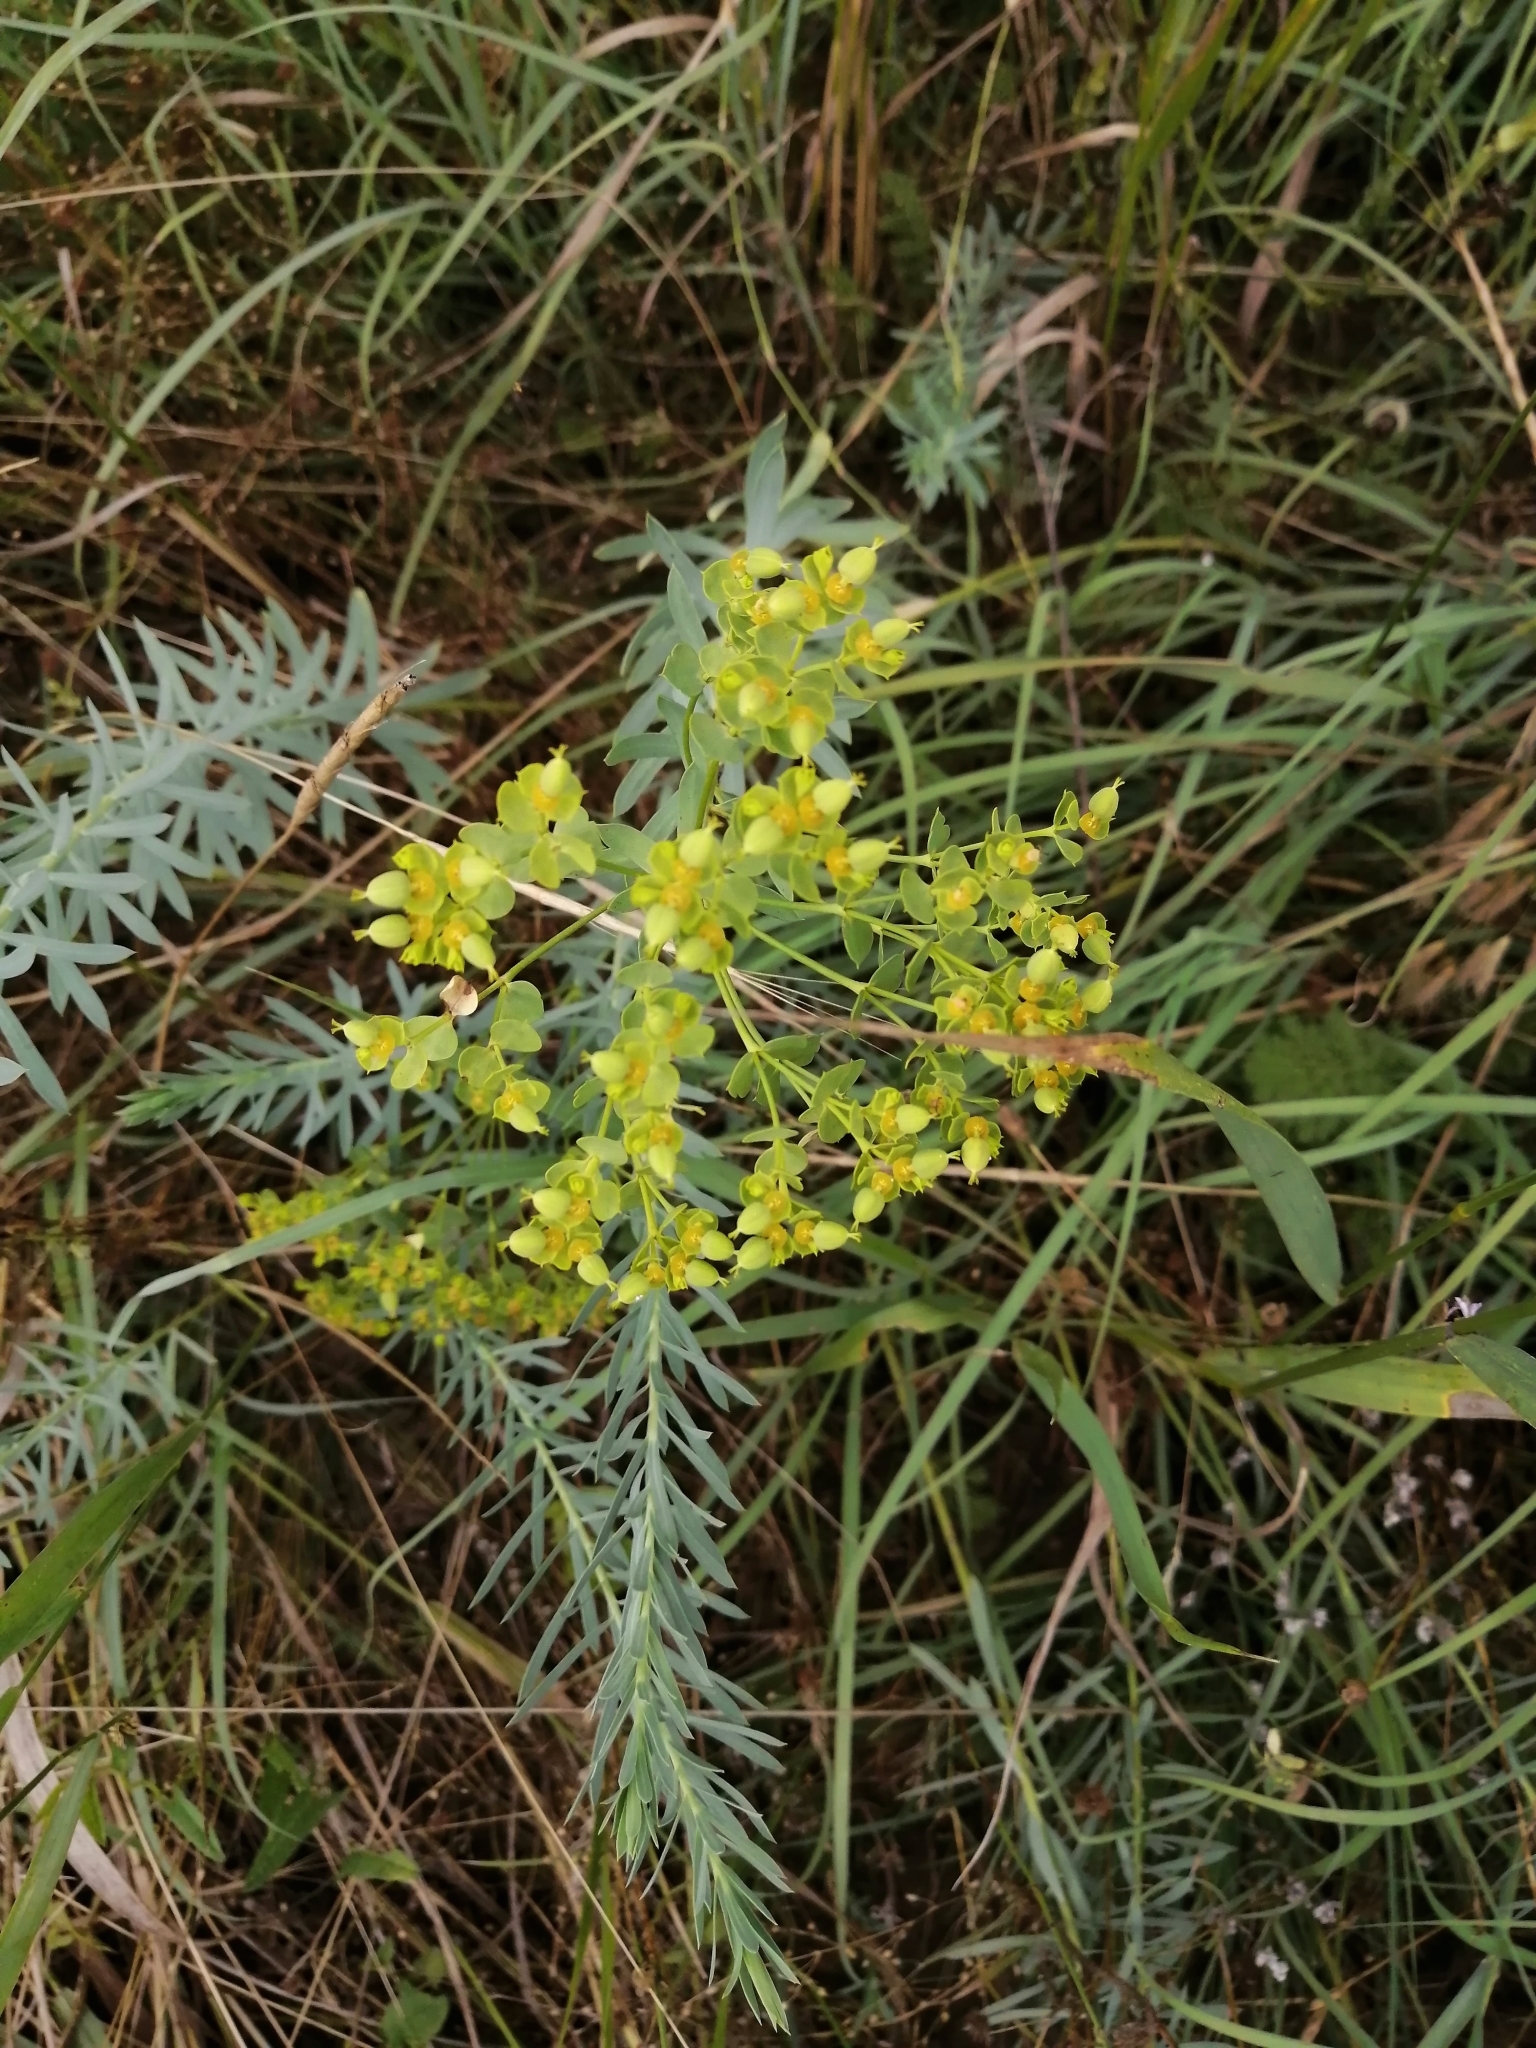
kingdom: Plantae
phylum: Tracheophyta
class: Magnoliopsida
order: Malpighiales
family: Euphorbiaceae
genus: Euphorbia
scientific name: Euphorbia seguieriana
